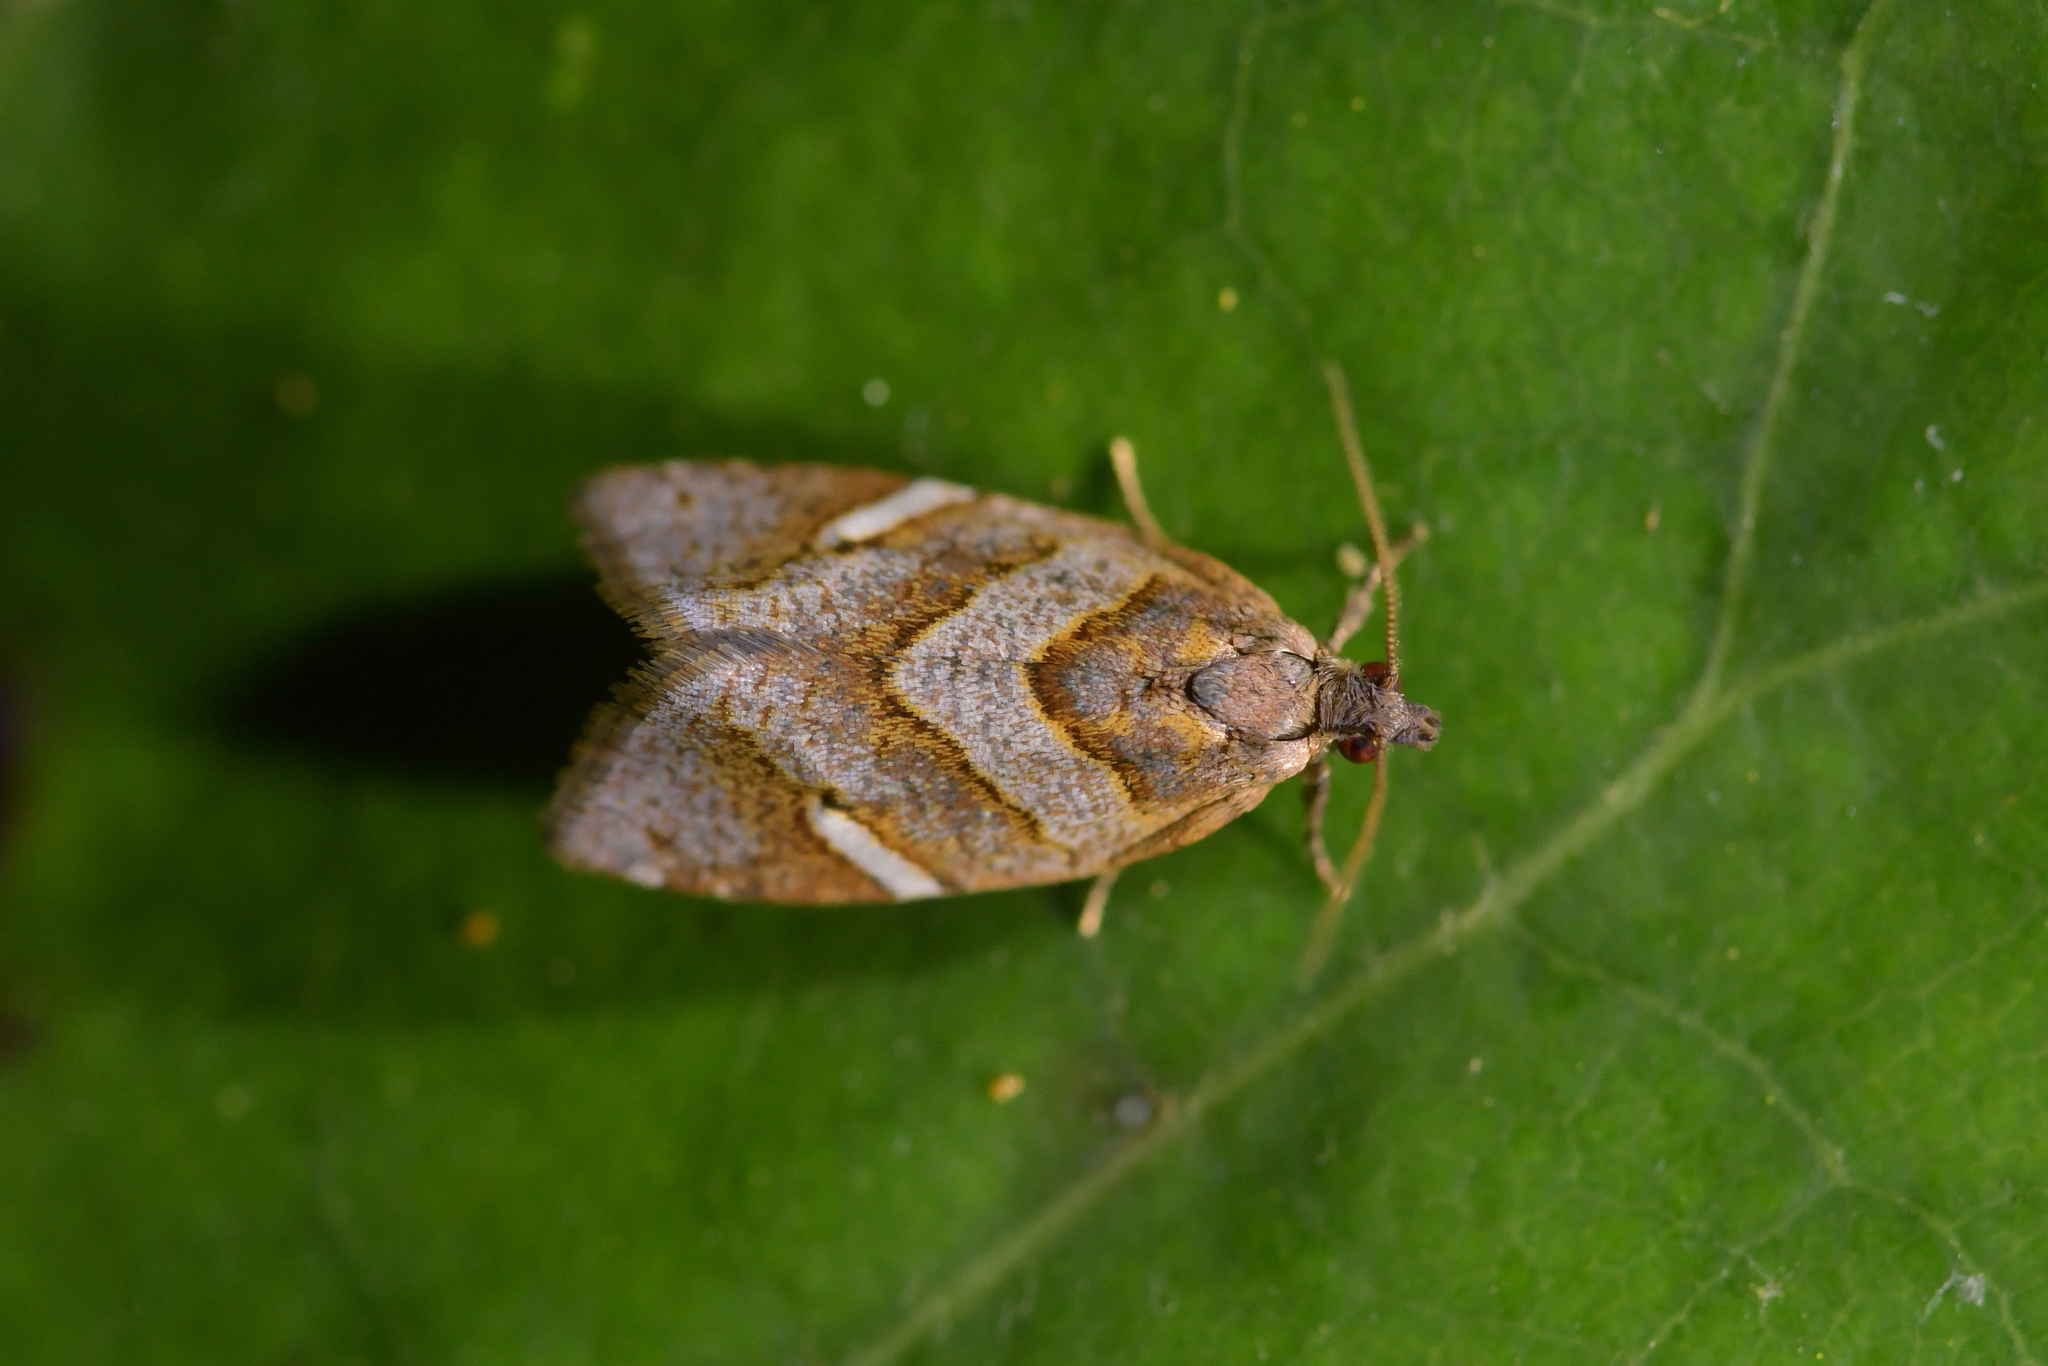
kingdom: Animalia
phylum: Arthropoda
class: Insecta
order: Lepidoptera
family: Tortricidae
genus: Ecclitica
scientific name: Ecclitica torogramma
